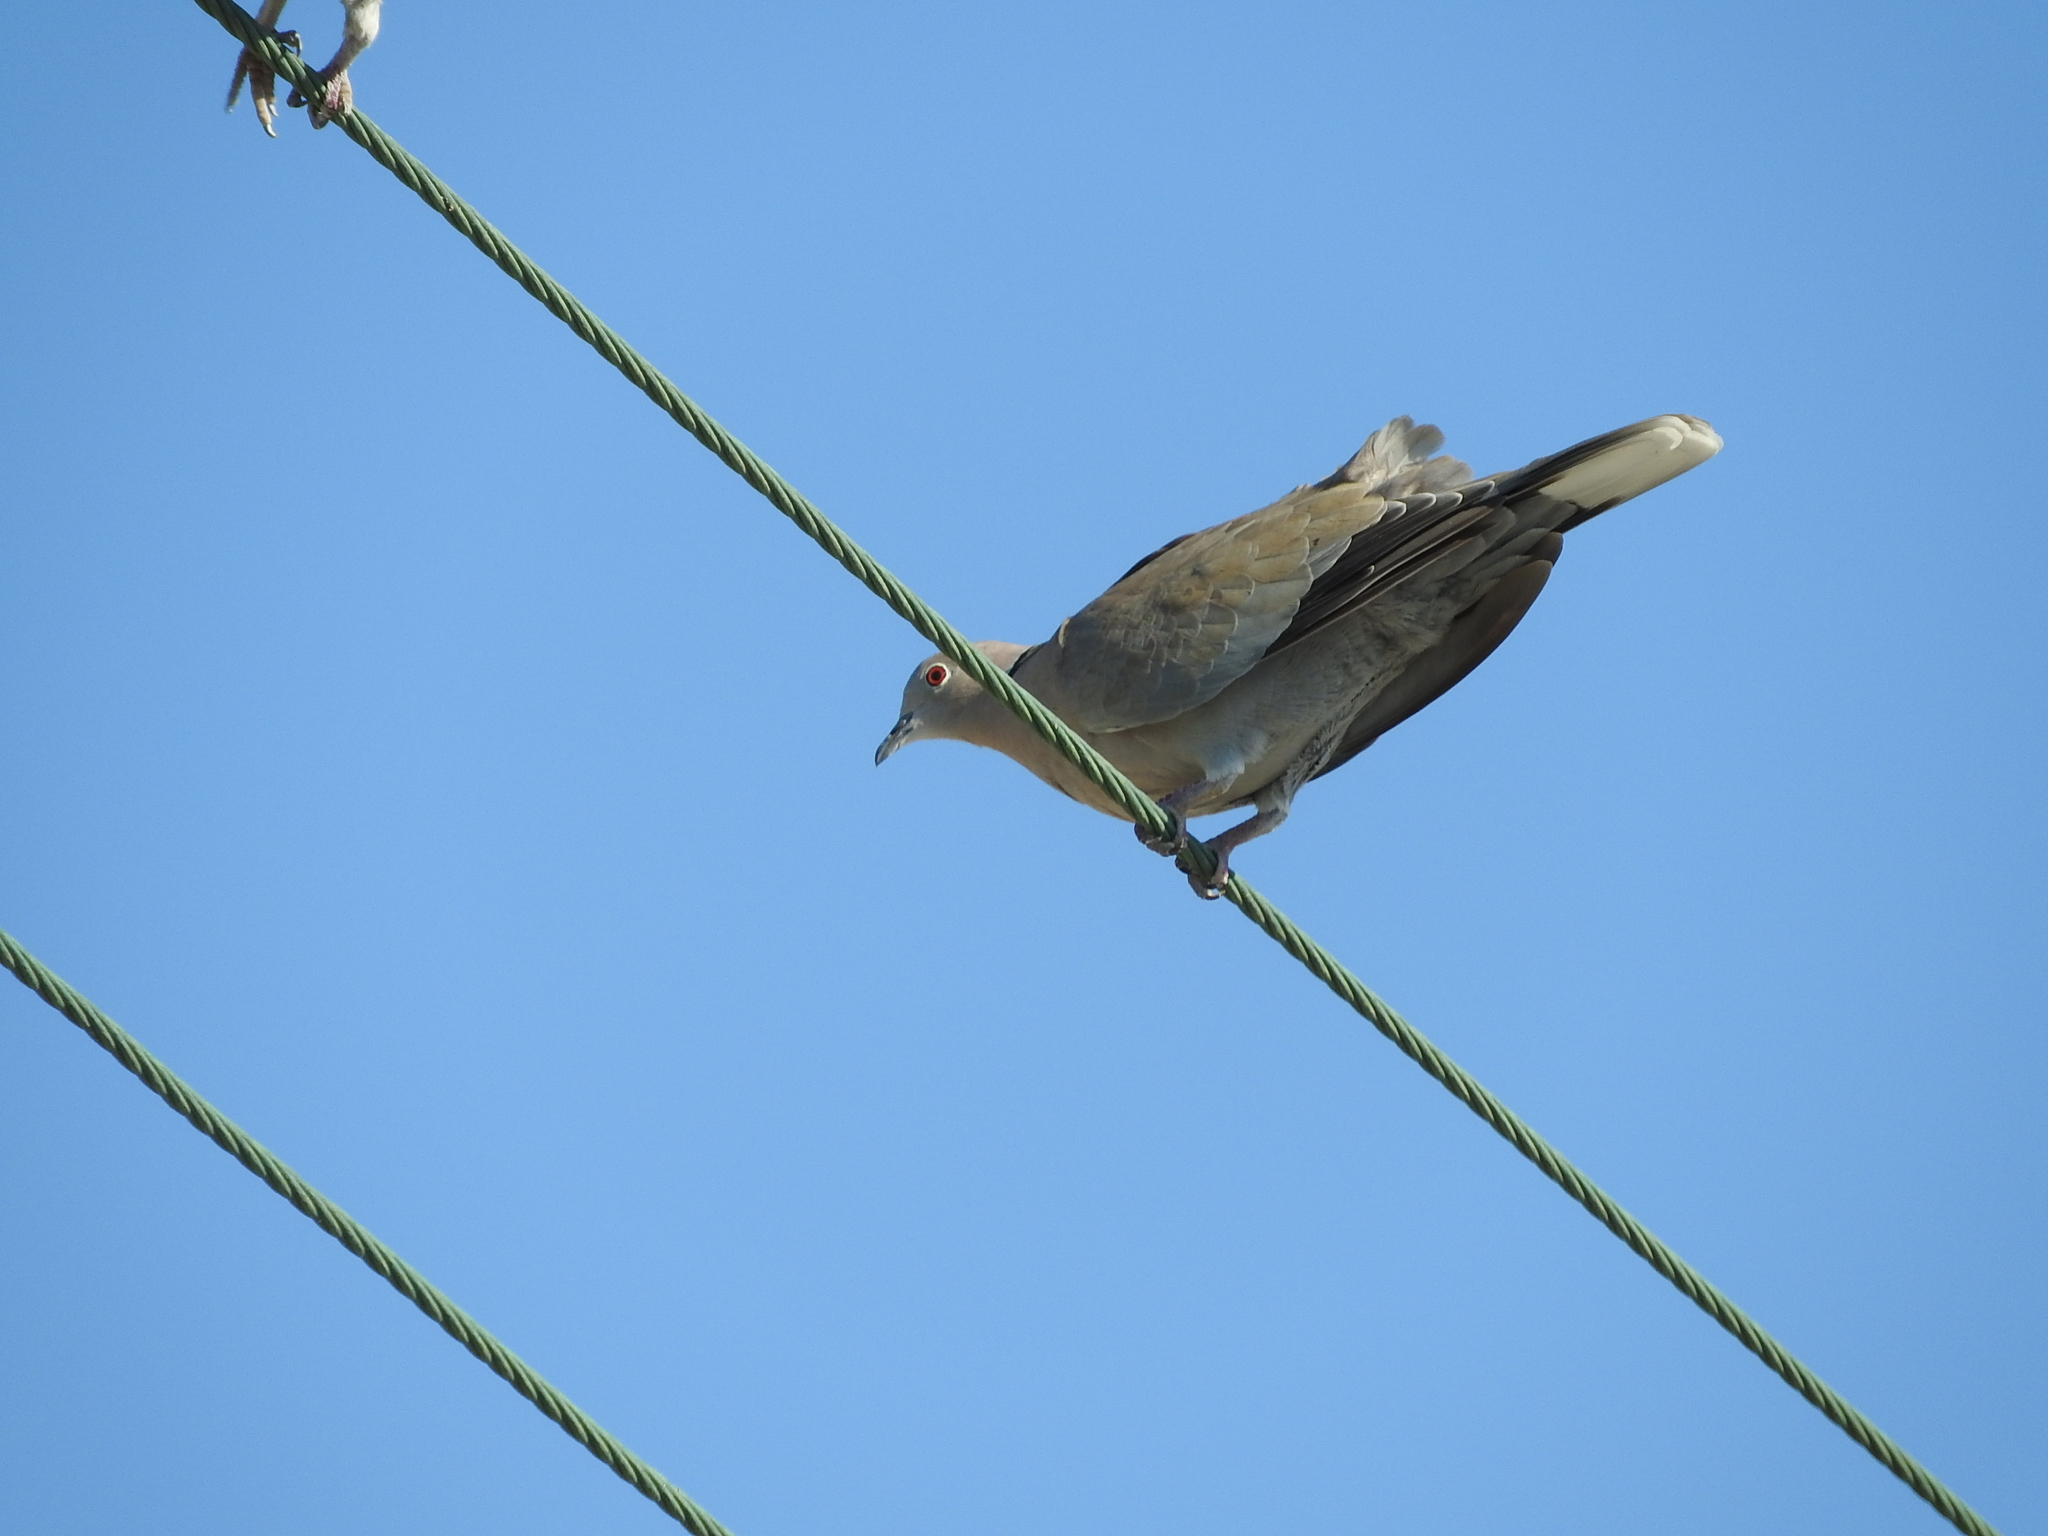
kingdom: Animalia
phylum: Chordata
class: Aves
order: Columbiformes
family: Columbidae
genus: Streptopelia
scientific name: Streptopelia decaocto
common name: Eurasian collared dove
